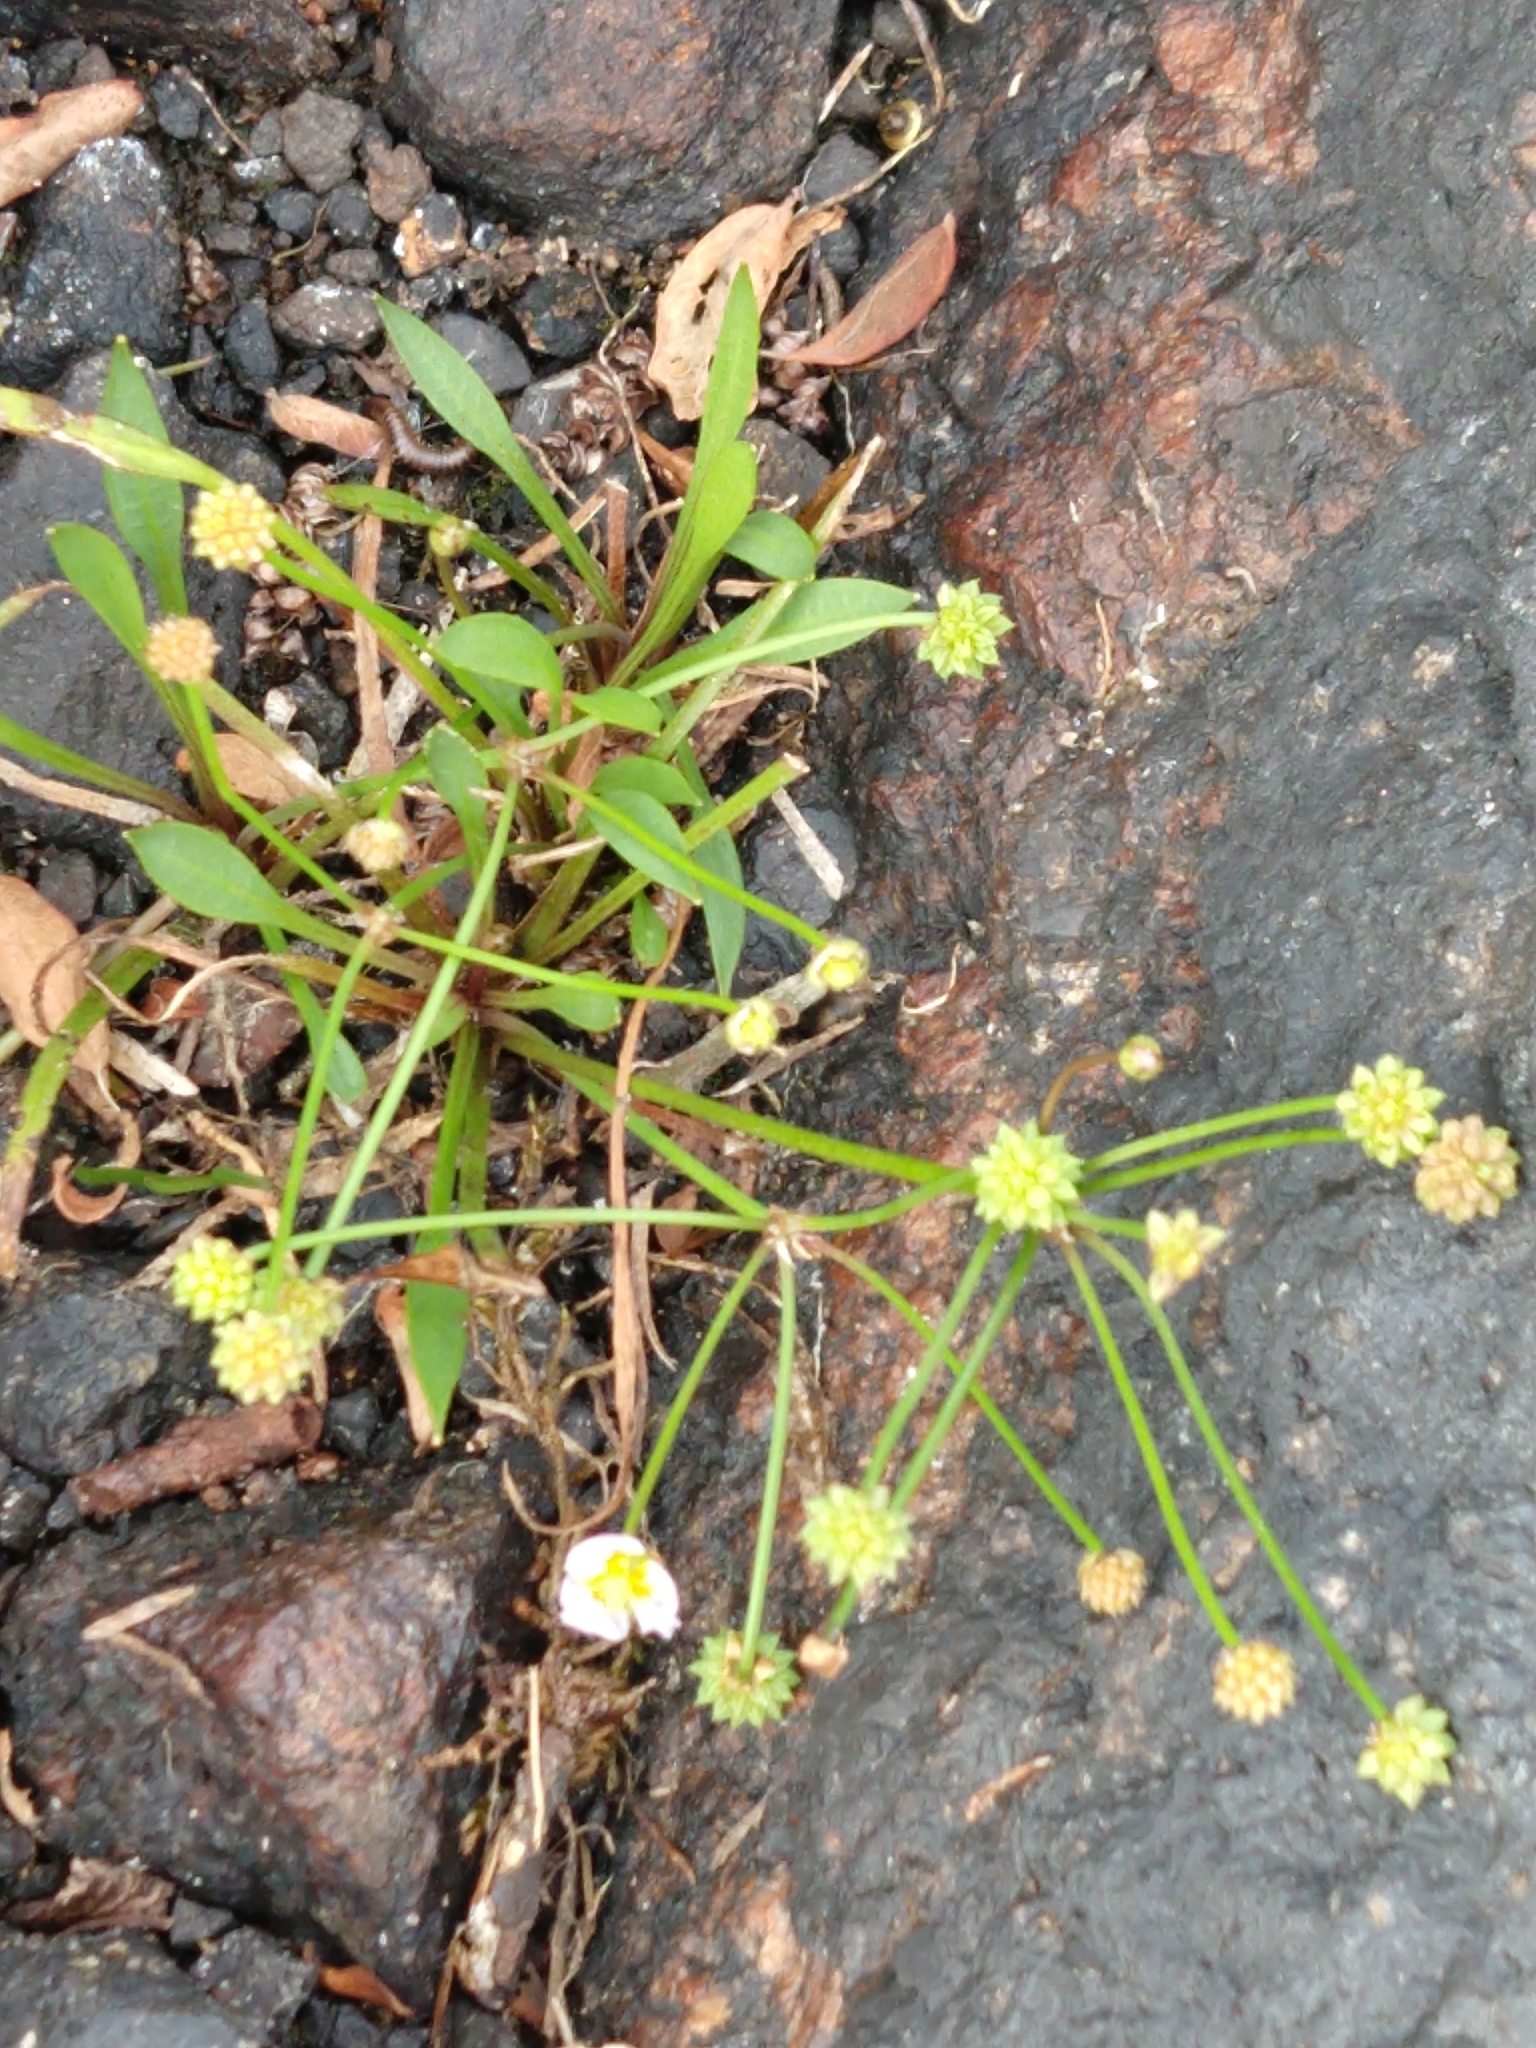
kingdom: Plantae
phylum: Tracheophyta
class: Liliopsida
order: Alismatales
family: Alismataceae
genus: Baldellia
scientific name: Baldellia ranunculoides
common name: Lesser water-plantain
